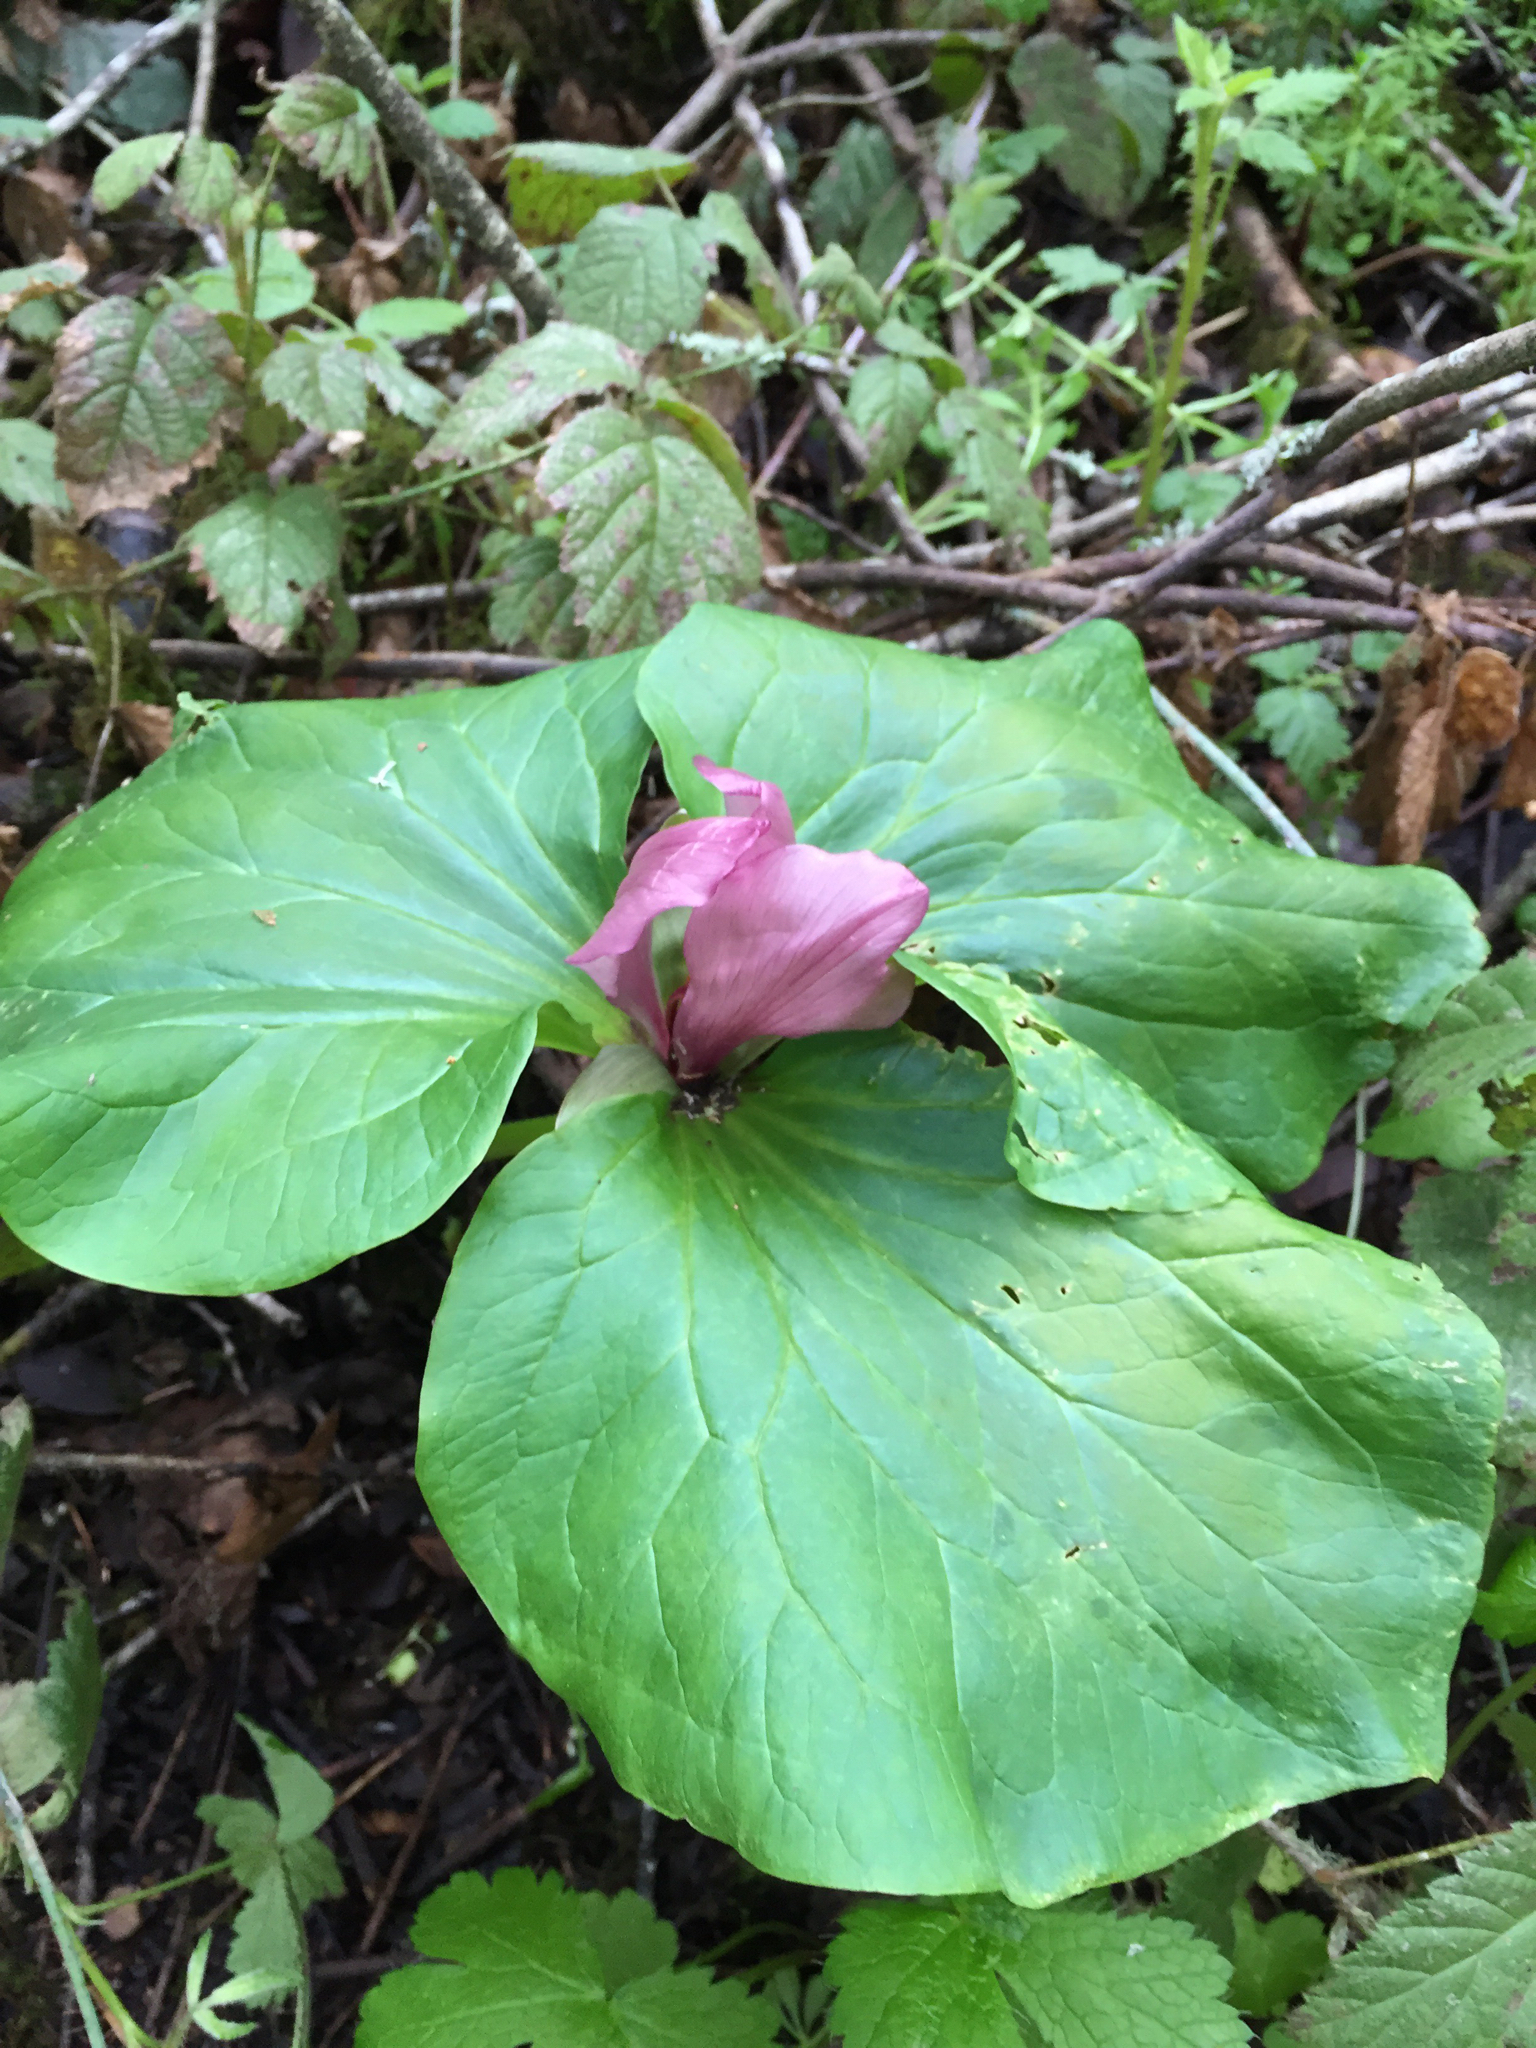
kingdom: Plantae
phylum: Tracheophyta
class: Liliopsida
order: Liliales
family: Melanthiaceae
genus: Trillium
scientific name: Trillium chloropetalum
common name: Giant trillium
